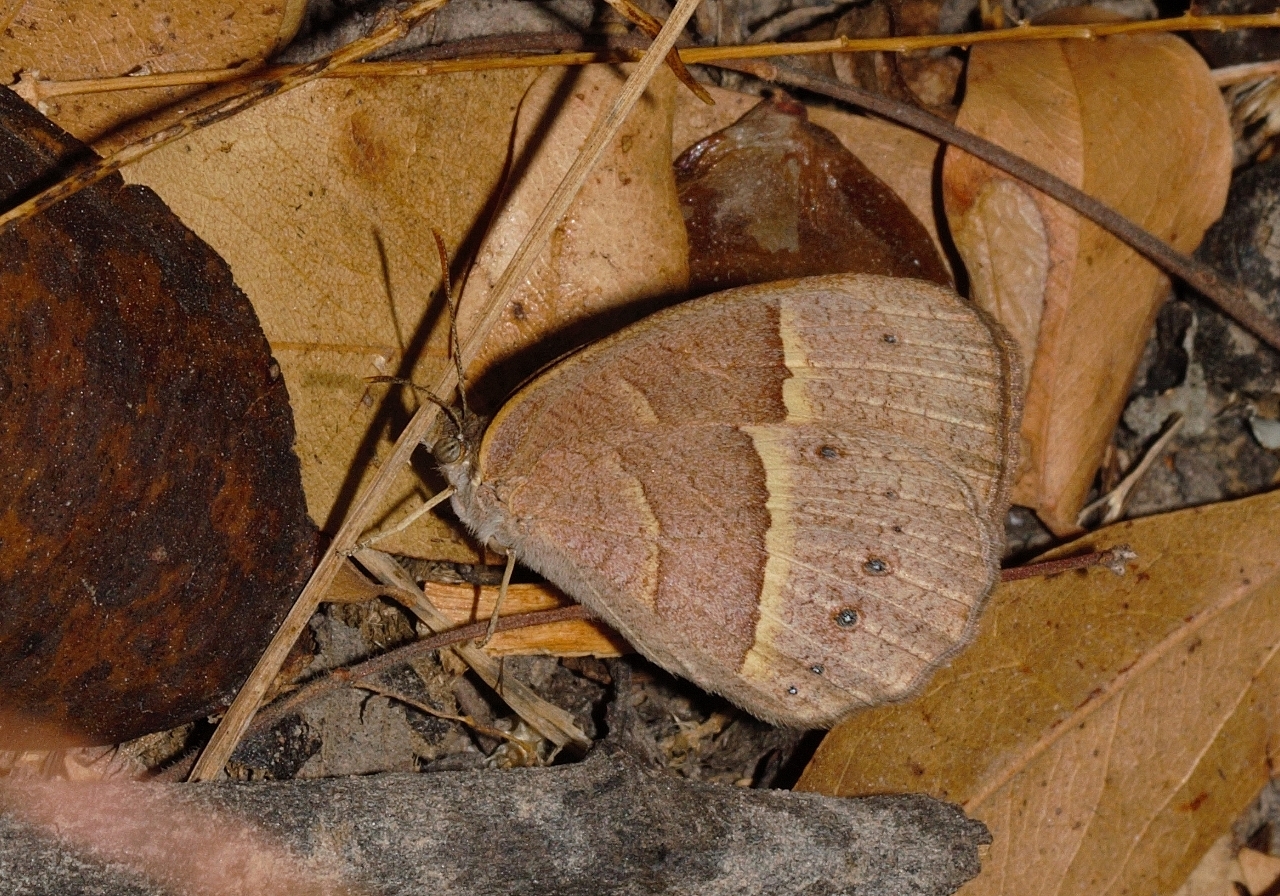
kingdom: Animalia
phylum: Arthropoda
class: Insecta
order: Lepidoptera
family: Nymphalidae
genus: Brakefieldia
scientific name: Brakefieldia simonsii
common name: Pale patroller
